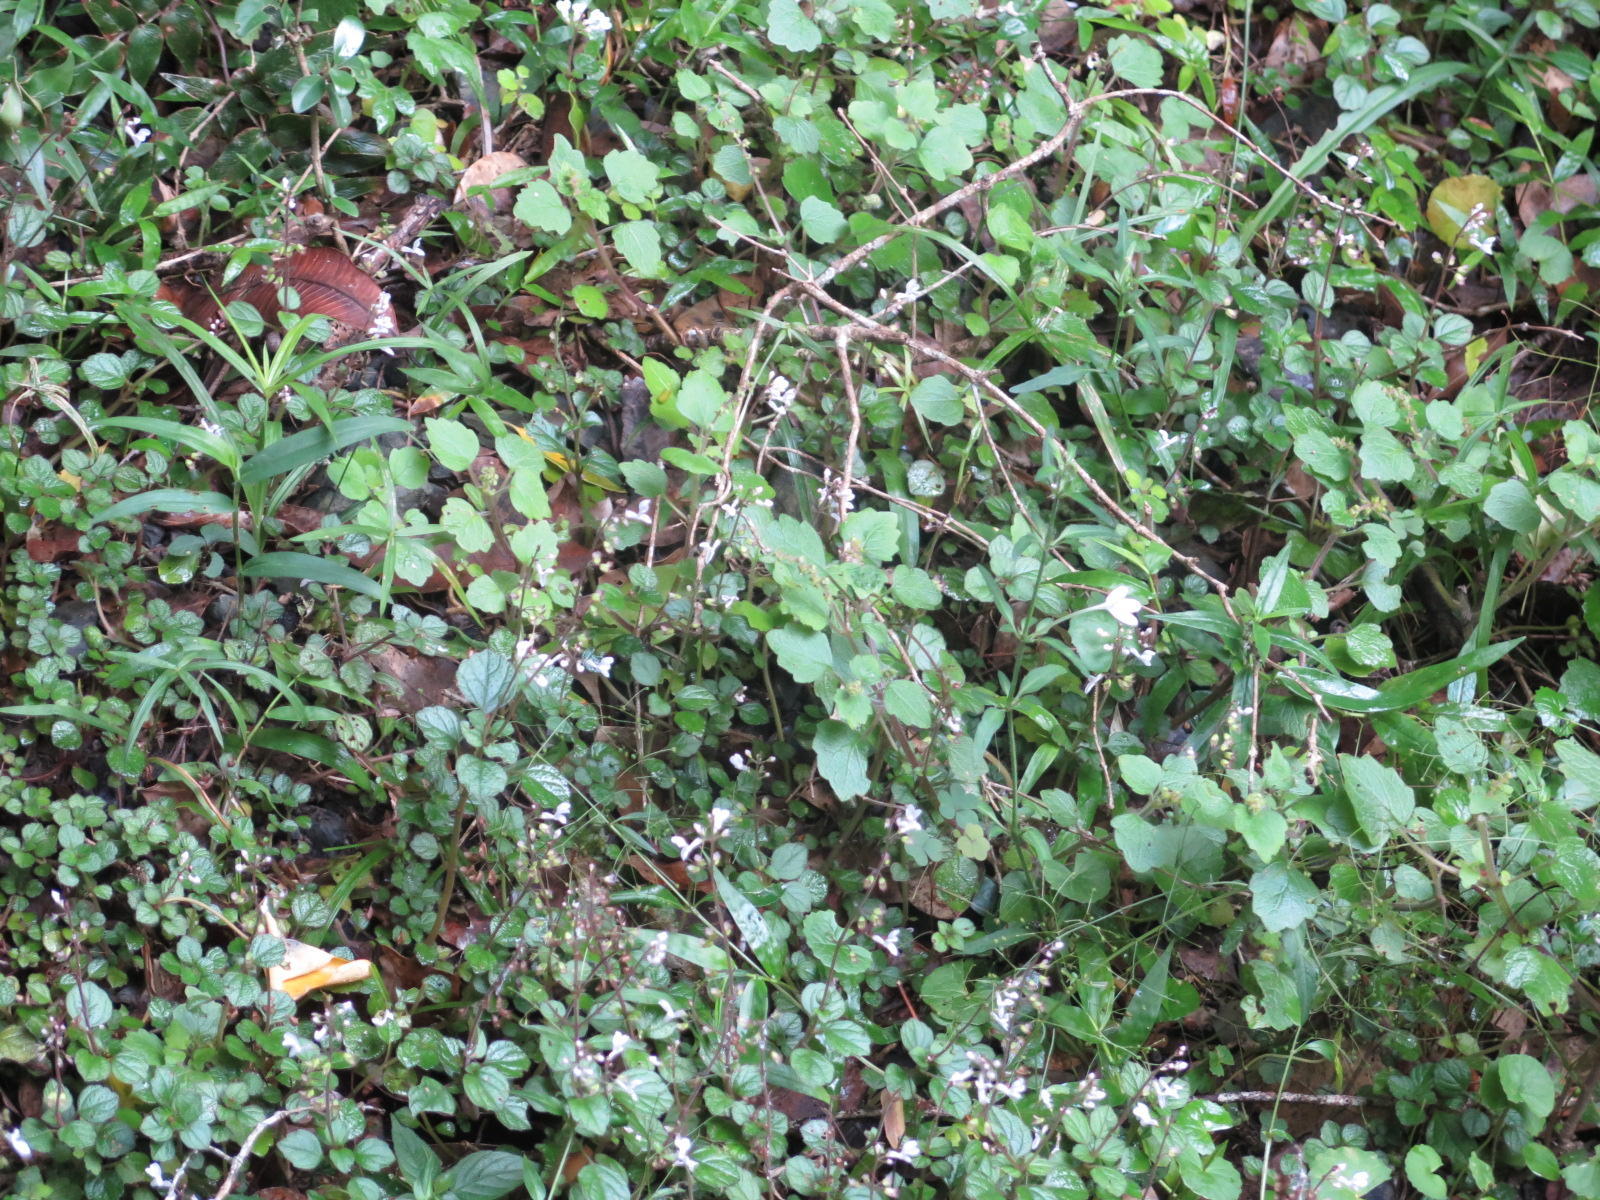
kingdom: Plantae
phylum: Tracheophyta
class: Magnoliopsida
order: Lamiales
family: Lamiaceae
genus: Plectranthus
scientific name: Plectranthus strigosus
